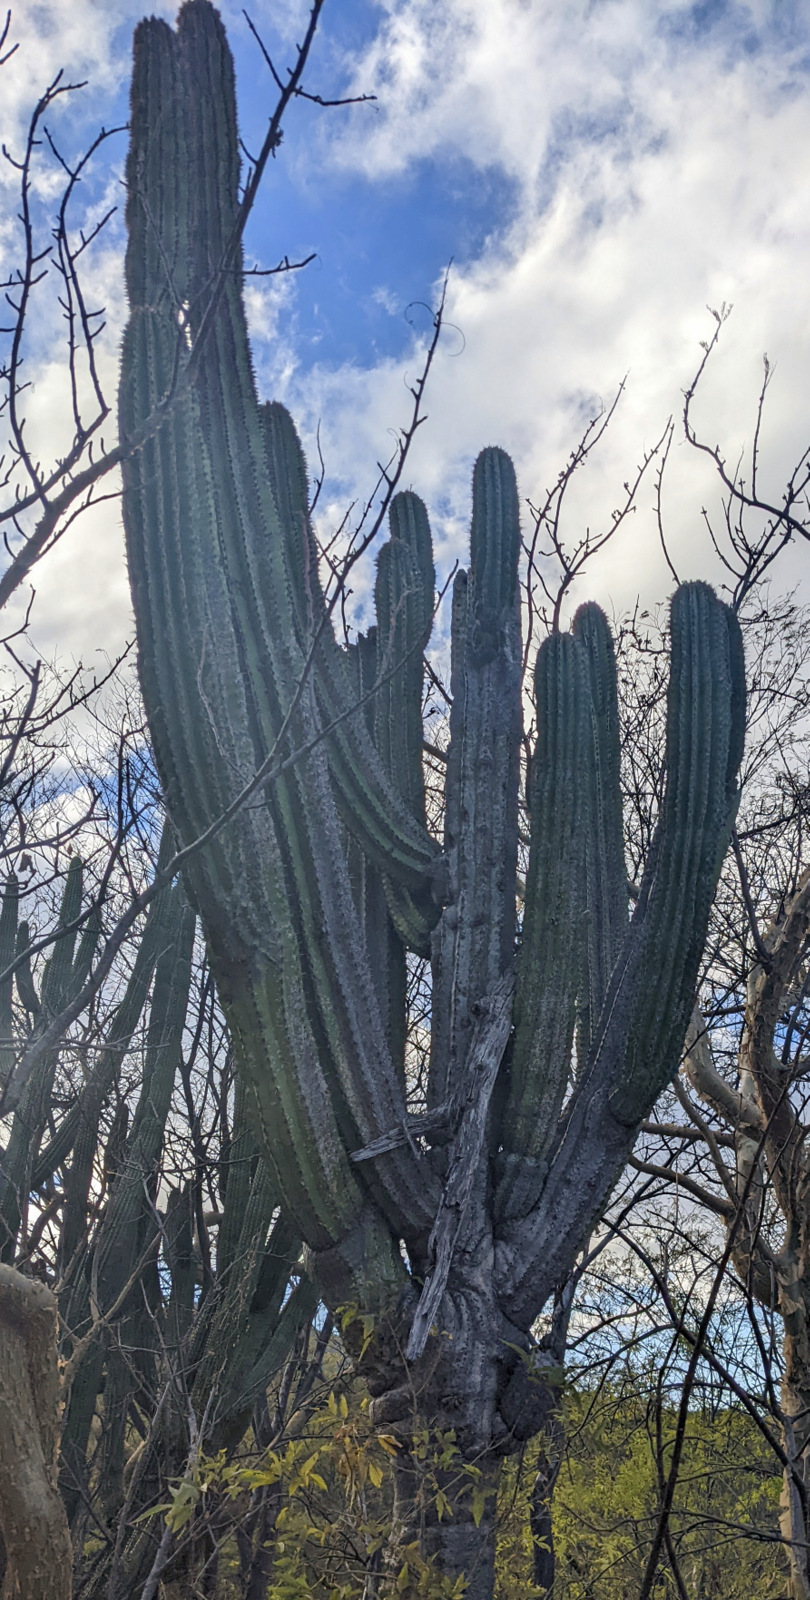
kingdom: Plantae
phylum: Tracheophyta
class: Magnoliopsida
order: Caryophyllales
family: Cactaceae
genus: Pachycereus
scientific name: Pachycereus pecten-aboriginum
